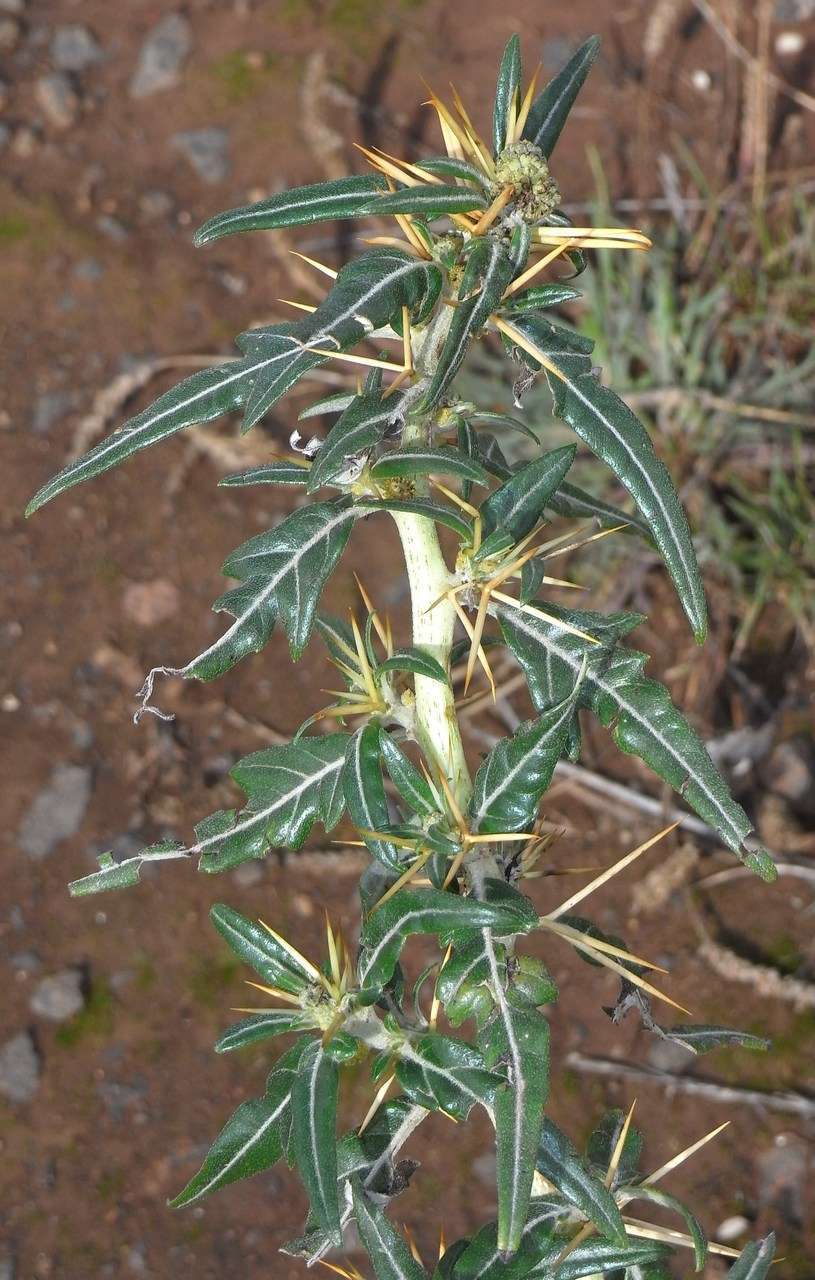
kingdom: Plantae
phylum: Tracheophyta
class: Magnoliopsida
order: Asterales
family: Asteraceae
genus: Xanthium
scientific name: Xanthium spinosum
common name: Spiny cocklebur
